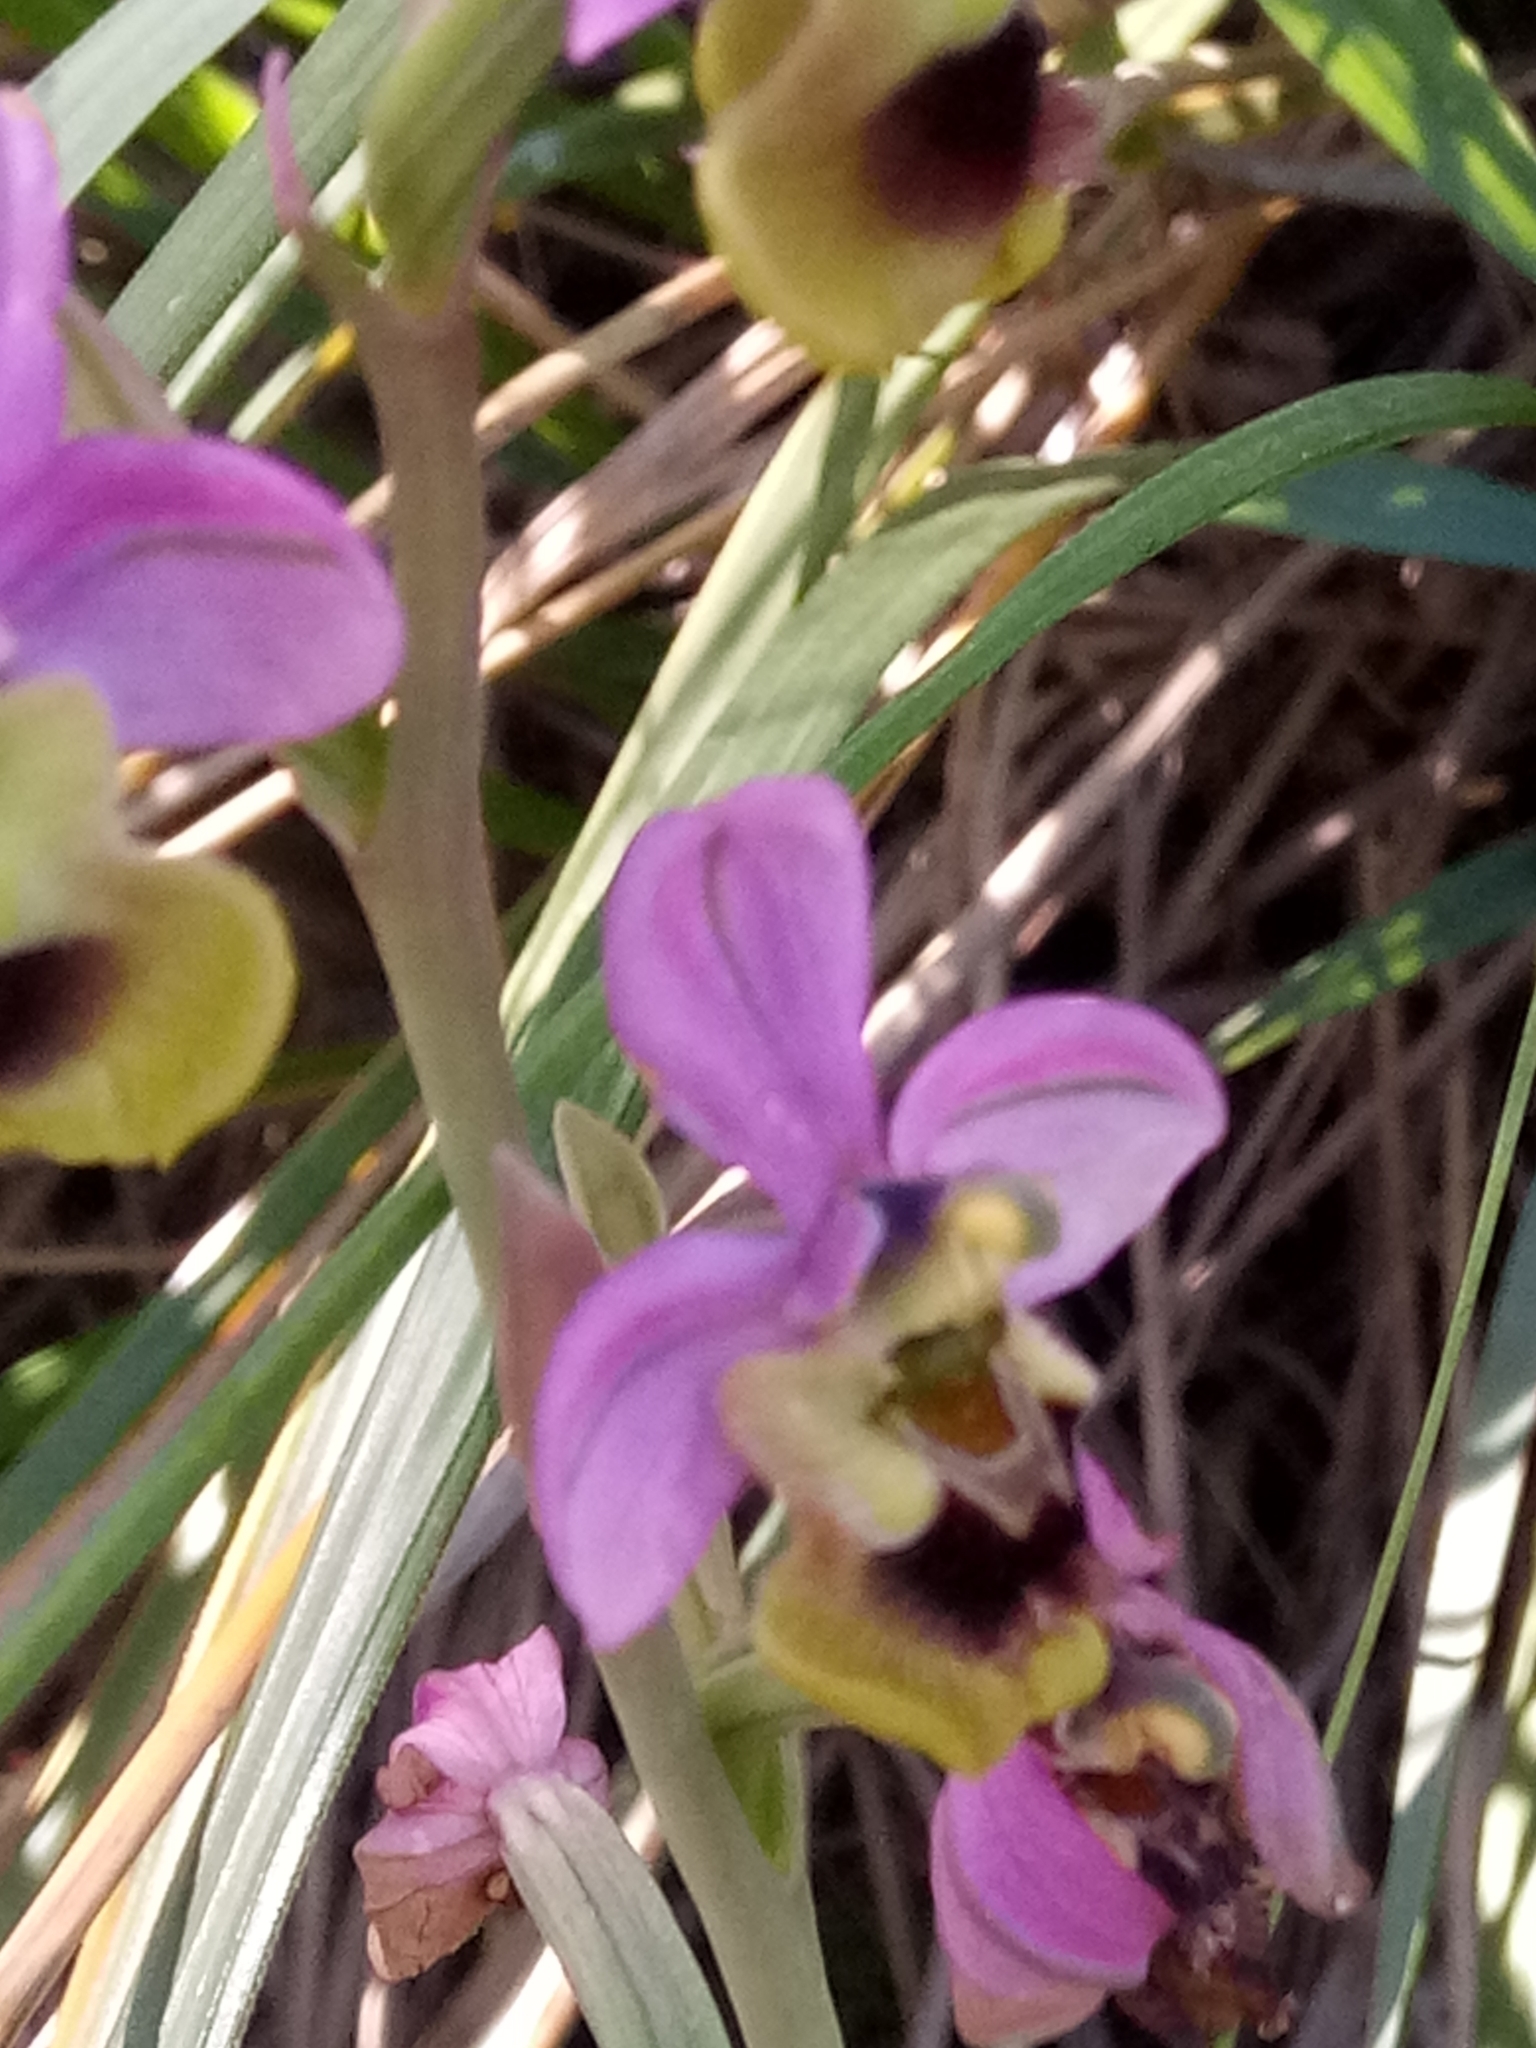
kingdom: Plantae
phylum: Tracheophyta
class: Liliopsida
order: Asparagales
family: Orchidaceae
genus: Ophrys
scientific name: Ophrys tenthredinifera
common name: Sawfly orchid
